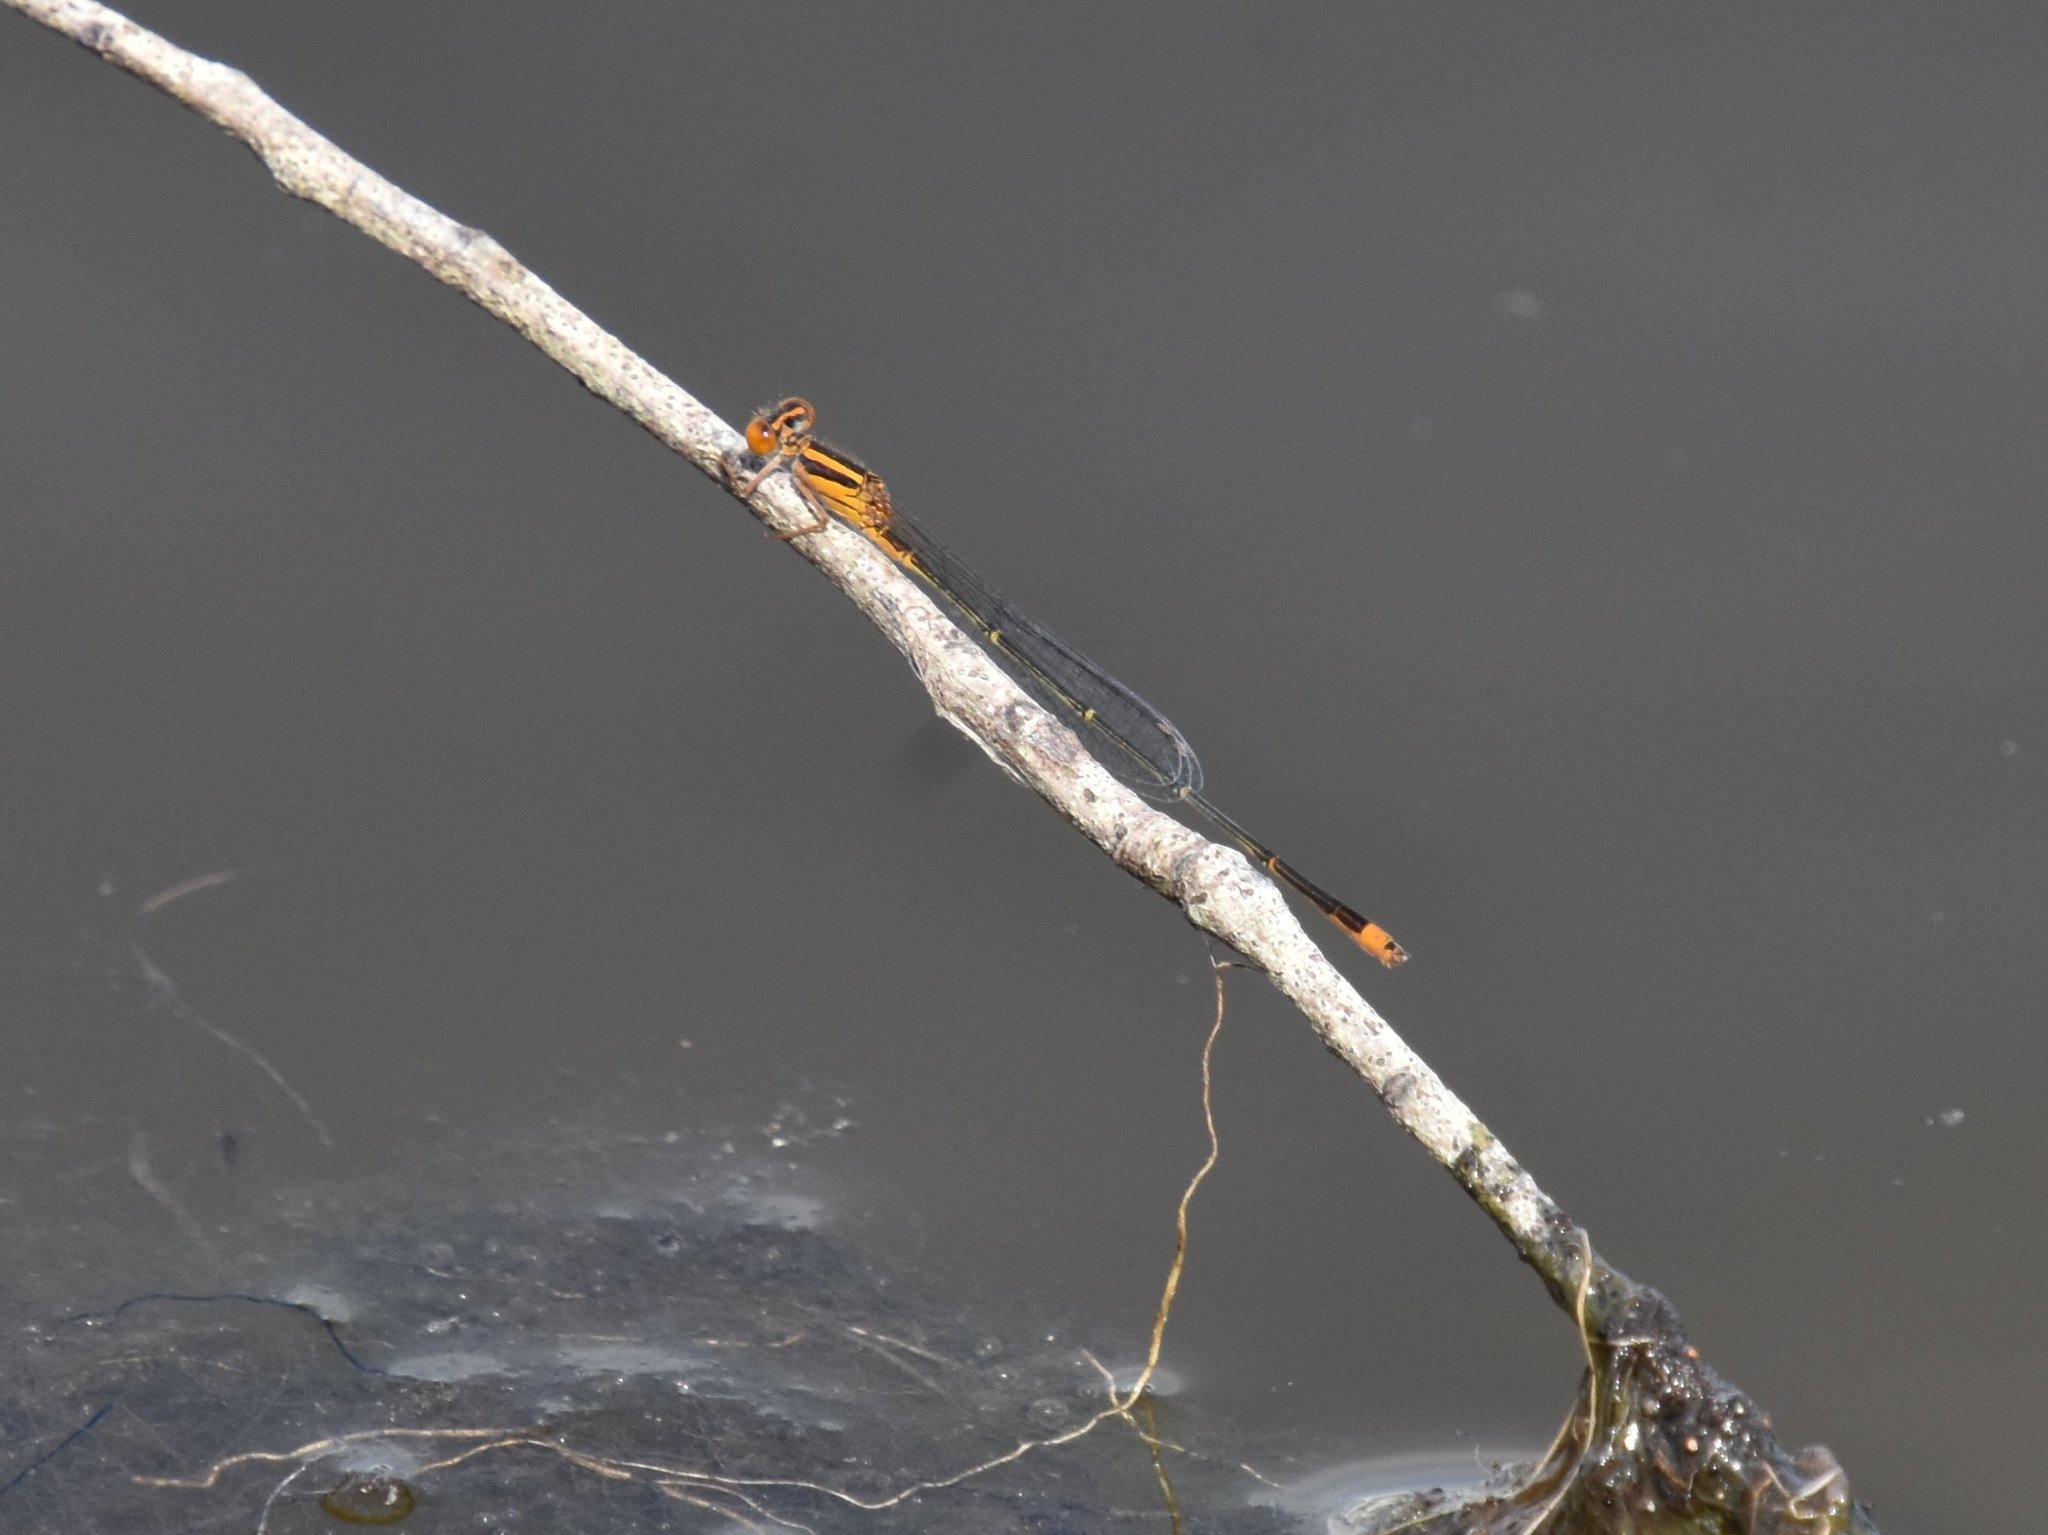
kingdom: Animalia
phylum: Arthropoda
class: Insecta
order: Odonata
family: Coenagrionidae
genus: Enallagma
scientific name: Enallagma pollutum
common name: Florida bluet
